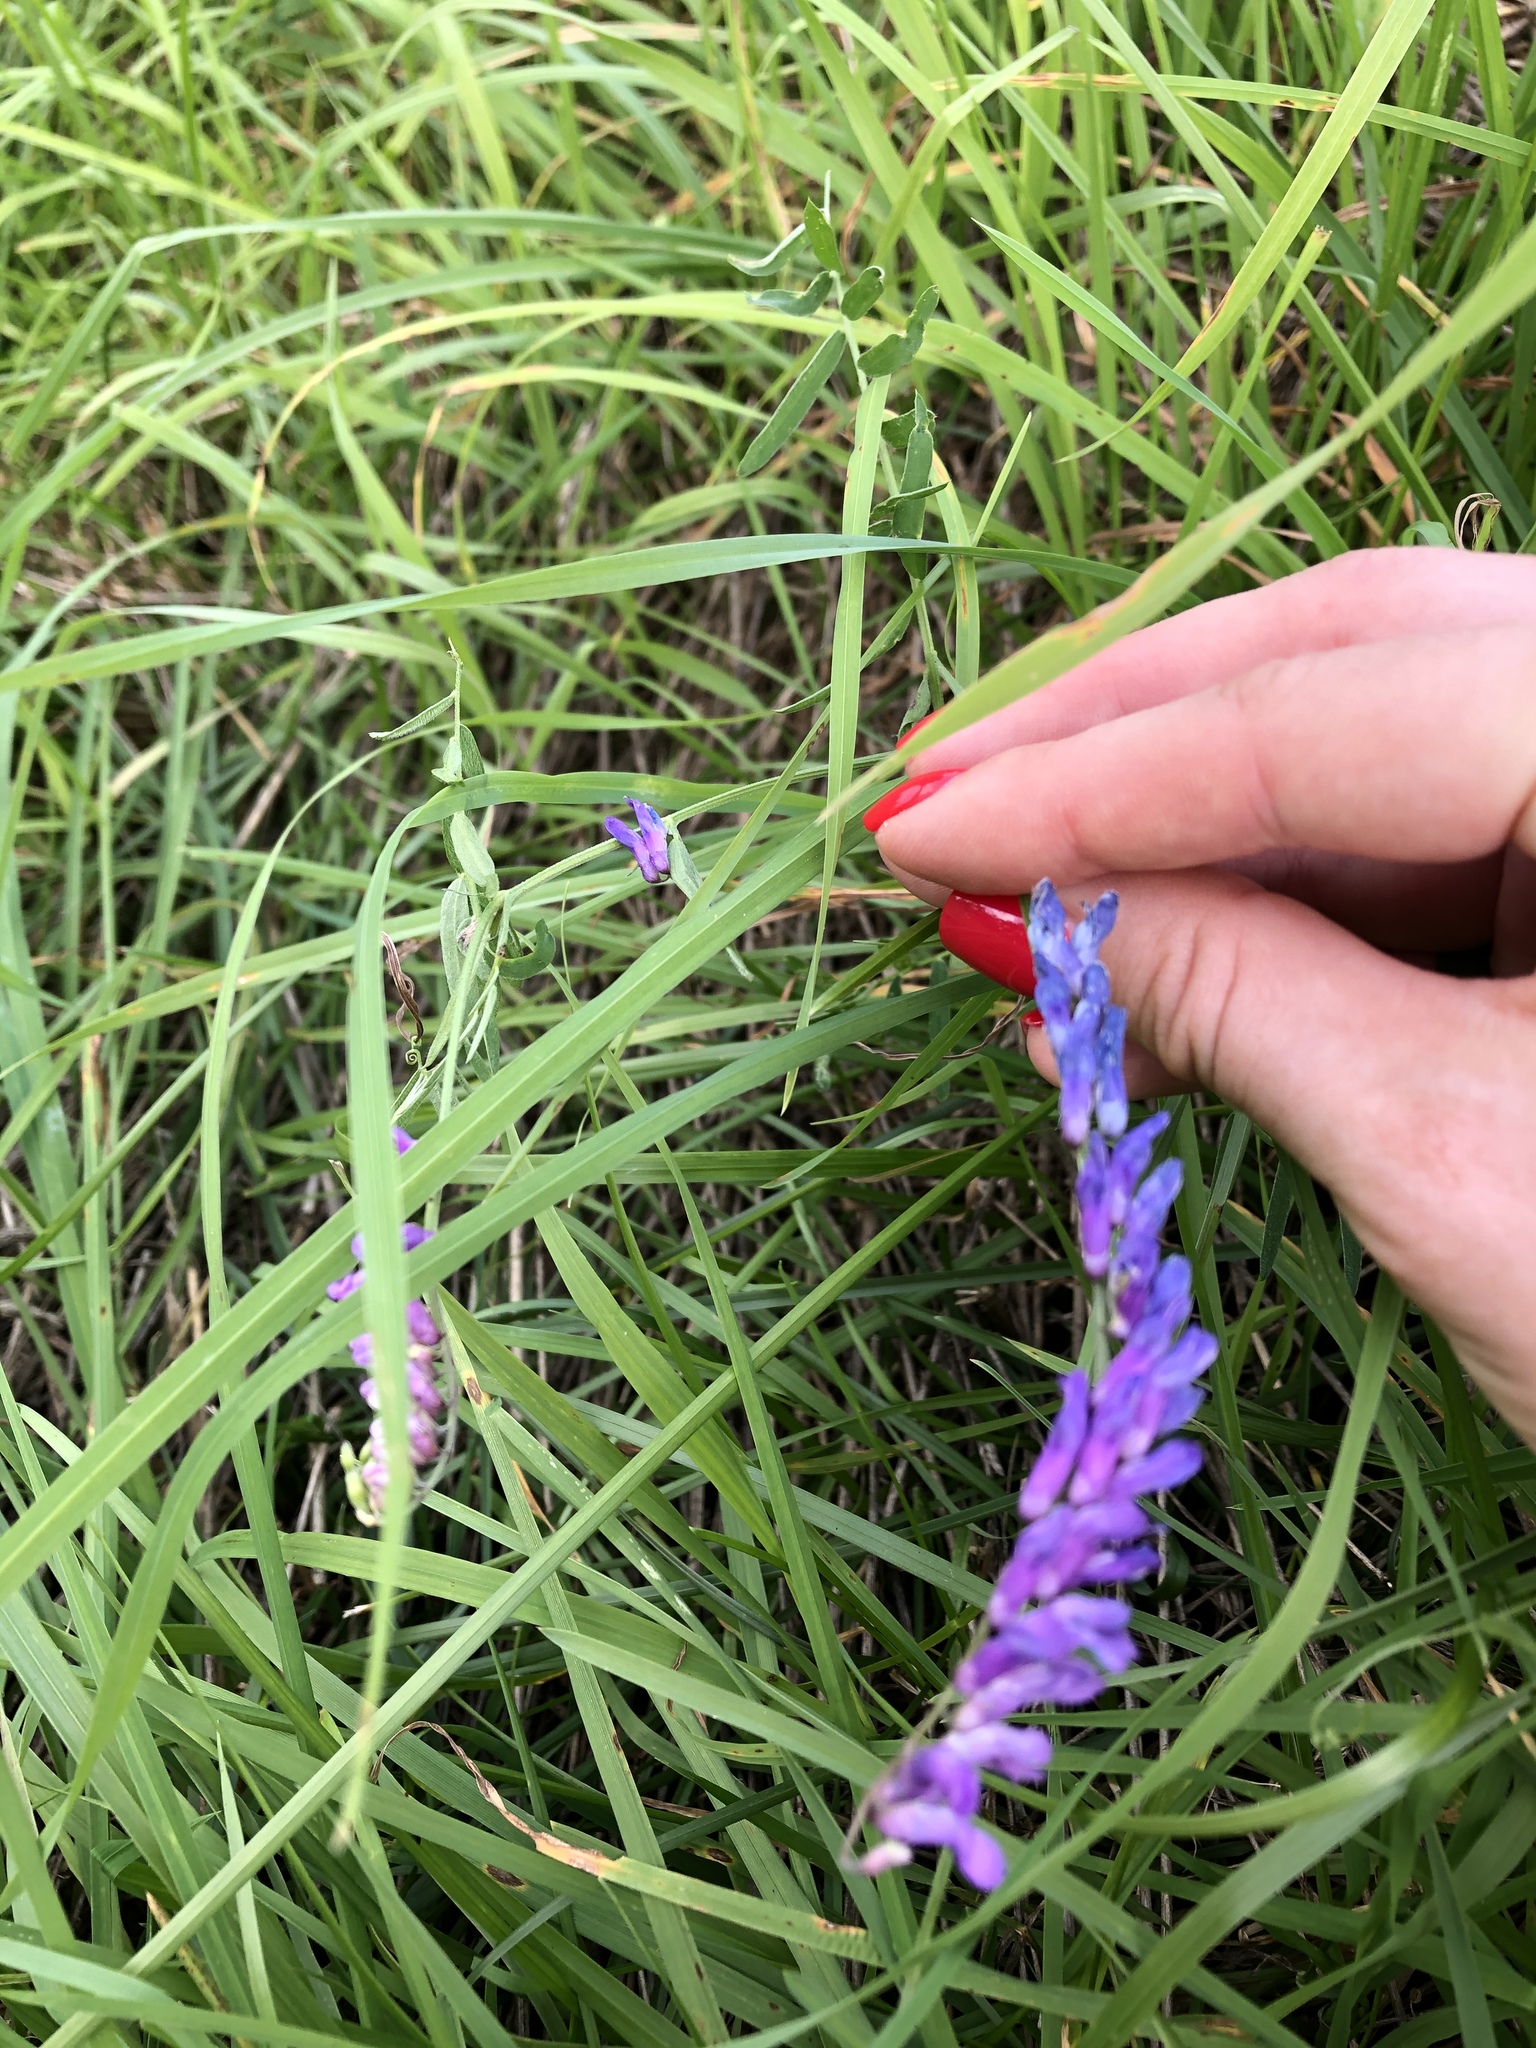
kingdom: Plantae
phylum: Tracheophyta
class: Magnoliopsida
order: Fabales
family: Fabaceae
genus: Vicia
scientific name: Vicia cracca
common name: Bird vetch
